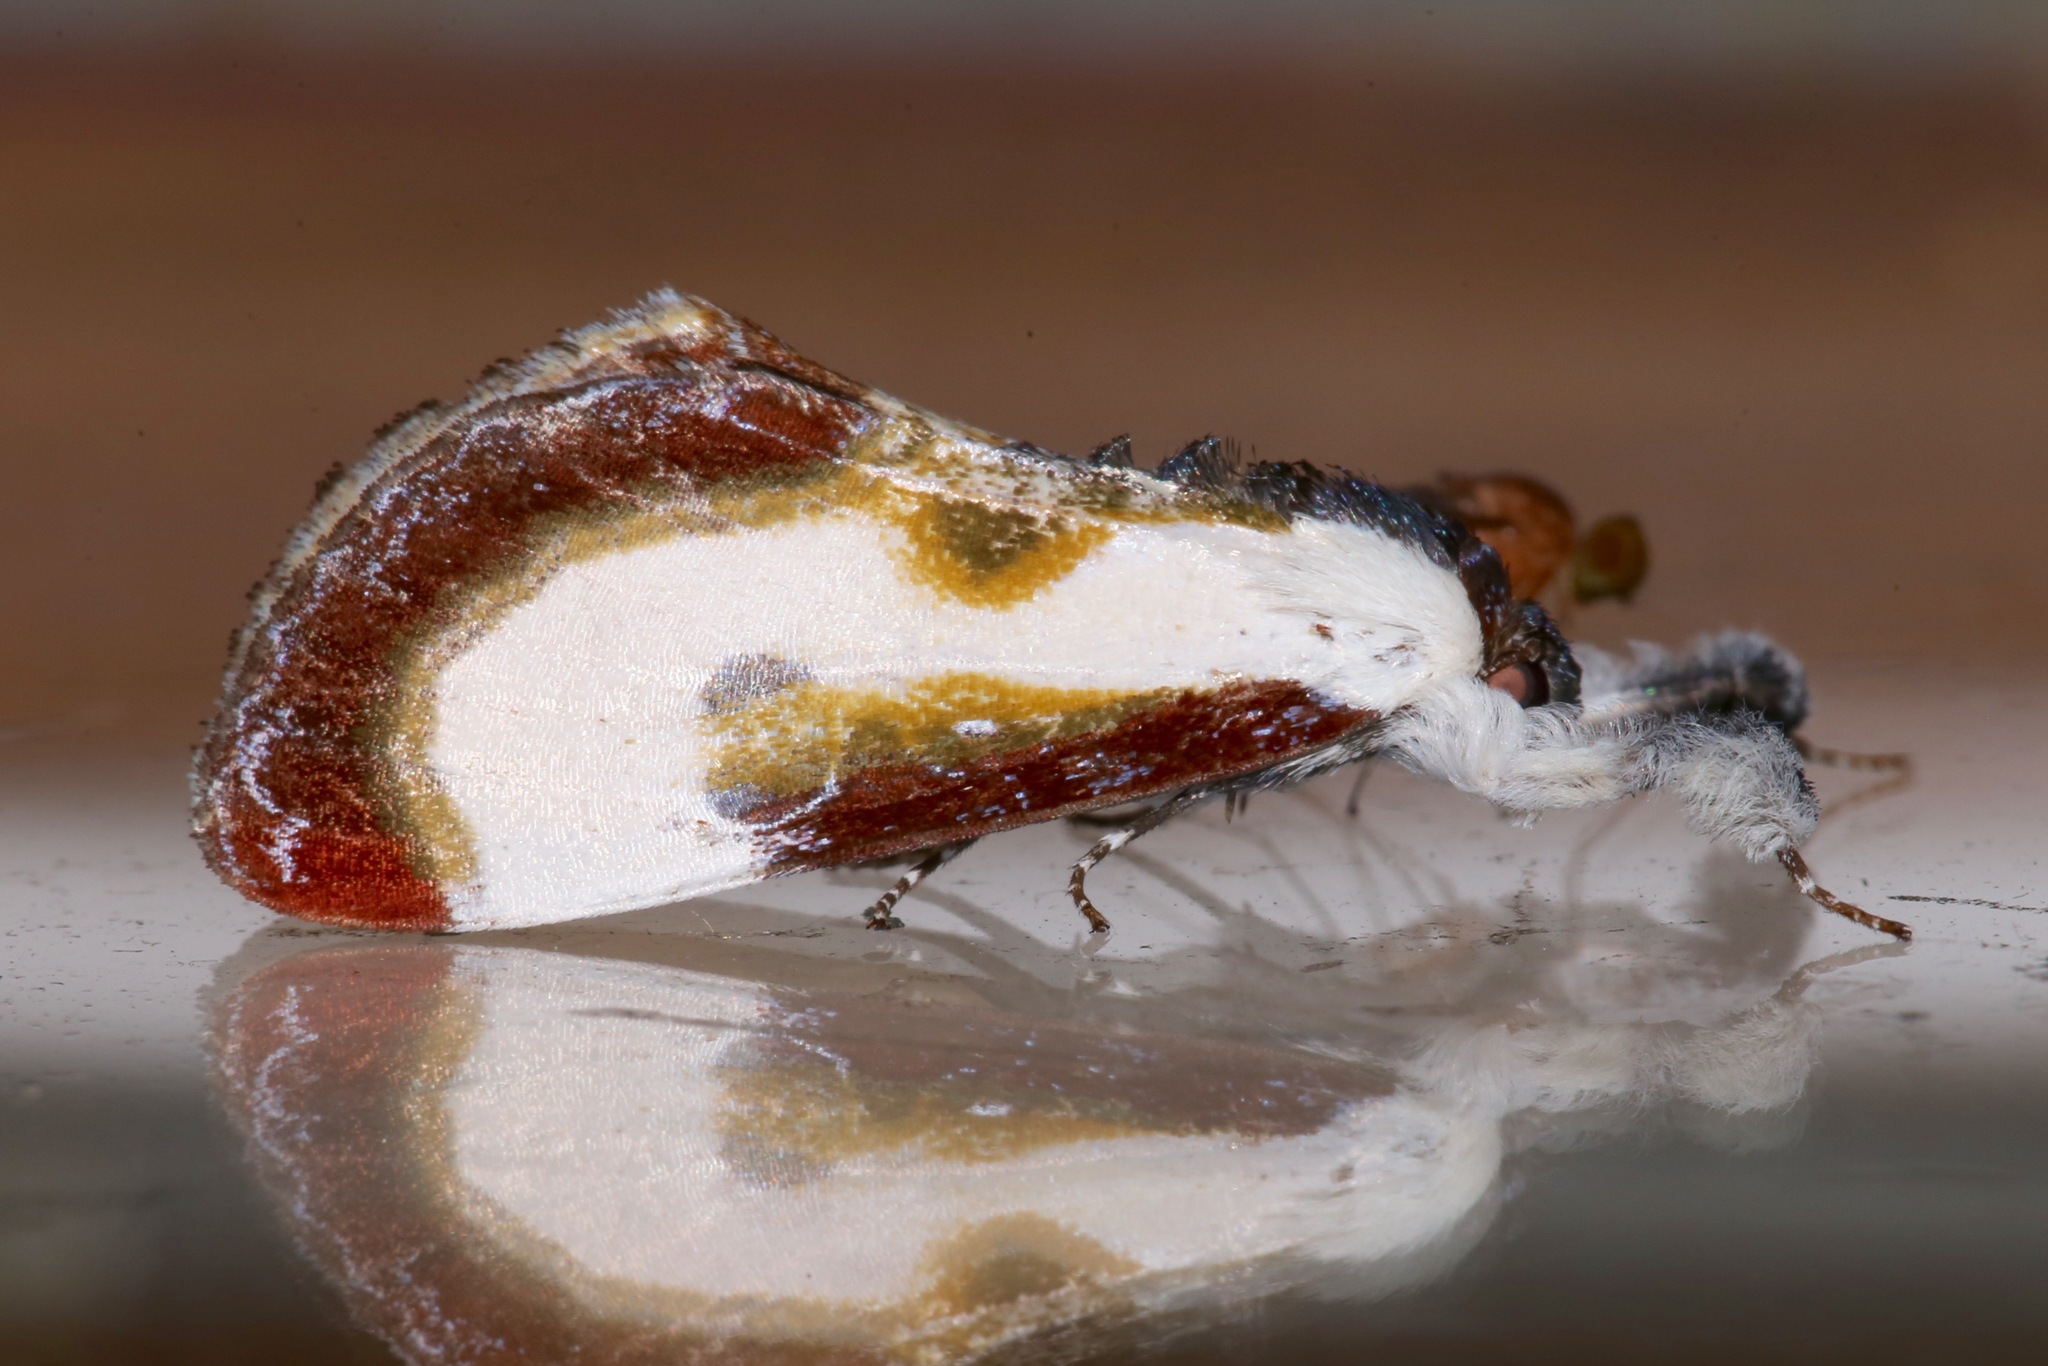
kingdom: Animalia
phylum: Arthropoda
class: Insecta
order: Lepidoptera
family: Noctuidae
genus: Eudryas
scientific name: Eudryas grata
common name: Beautiful wood-nymph
